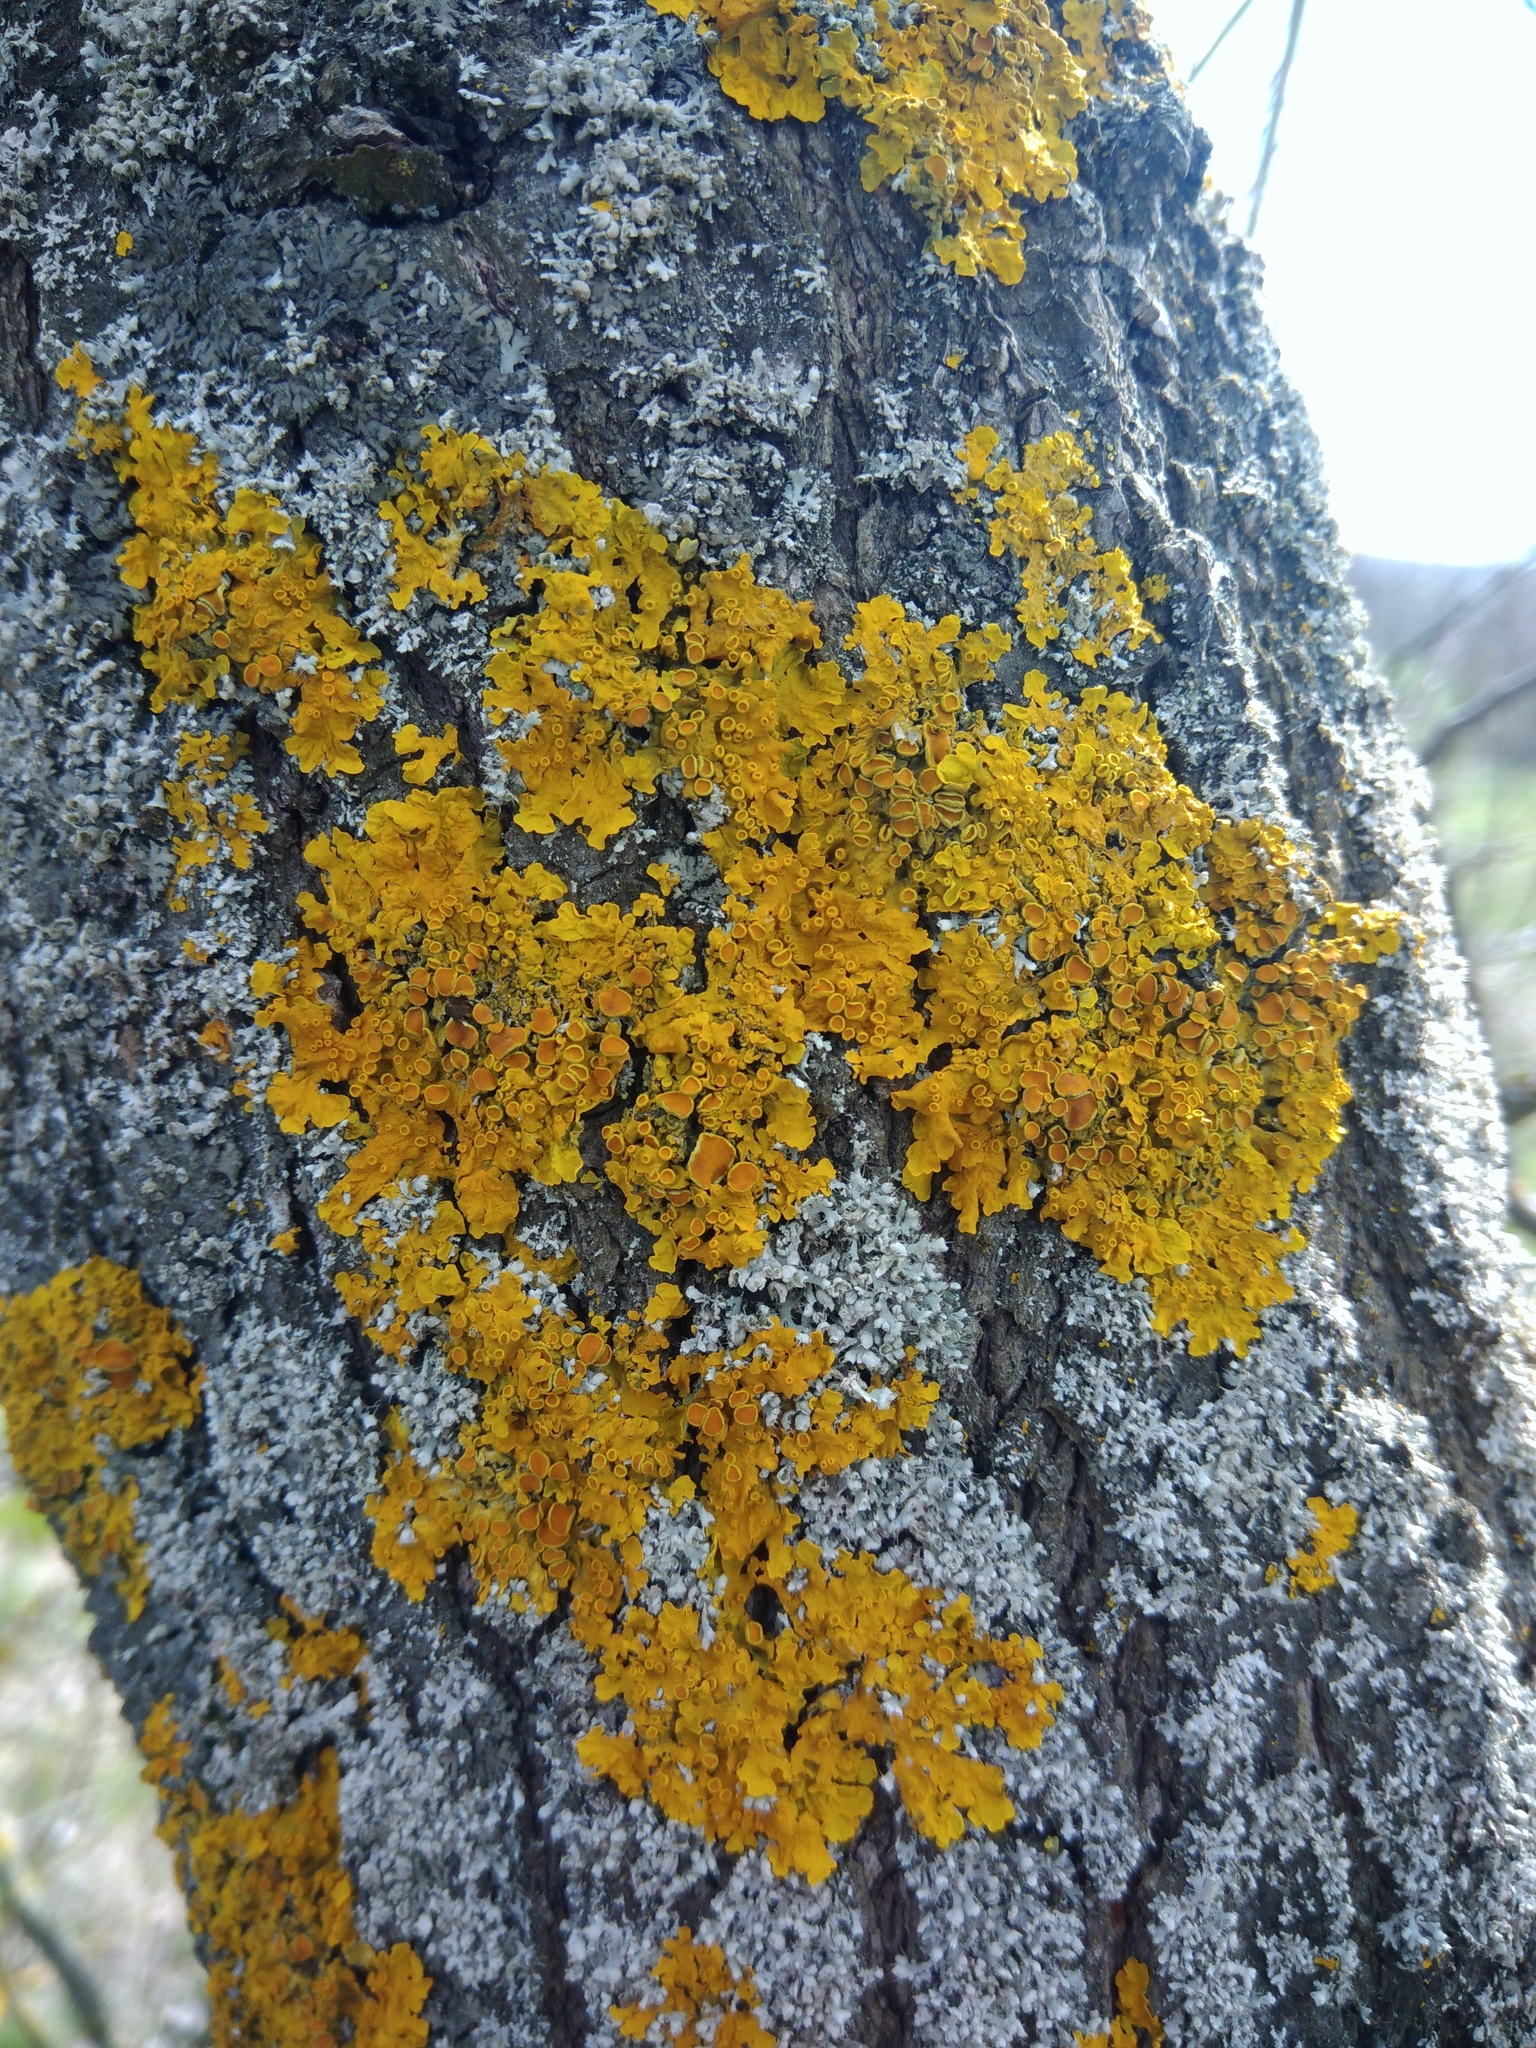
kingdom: Fungi
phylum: Ascomycota
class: Lecanoromycetes
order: Teloschistales
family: Teloschistaceae
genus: Xanthoria
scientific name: Xanthoria parietina
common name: Common orange lichen
